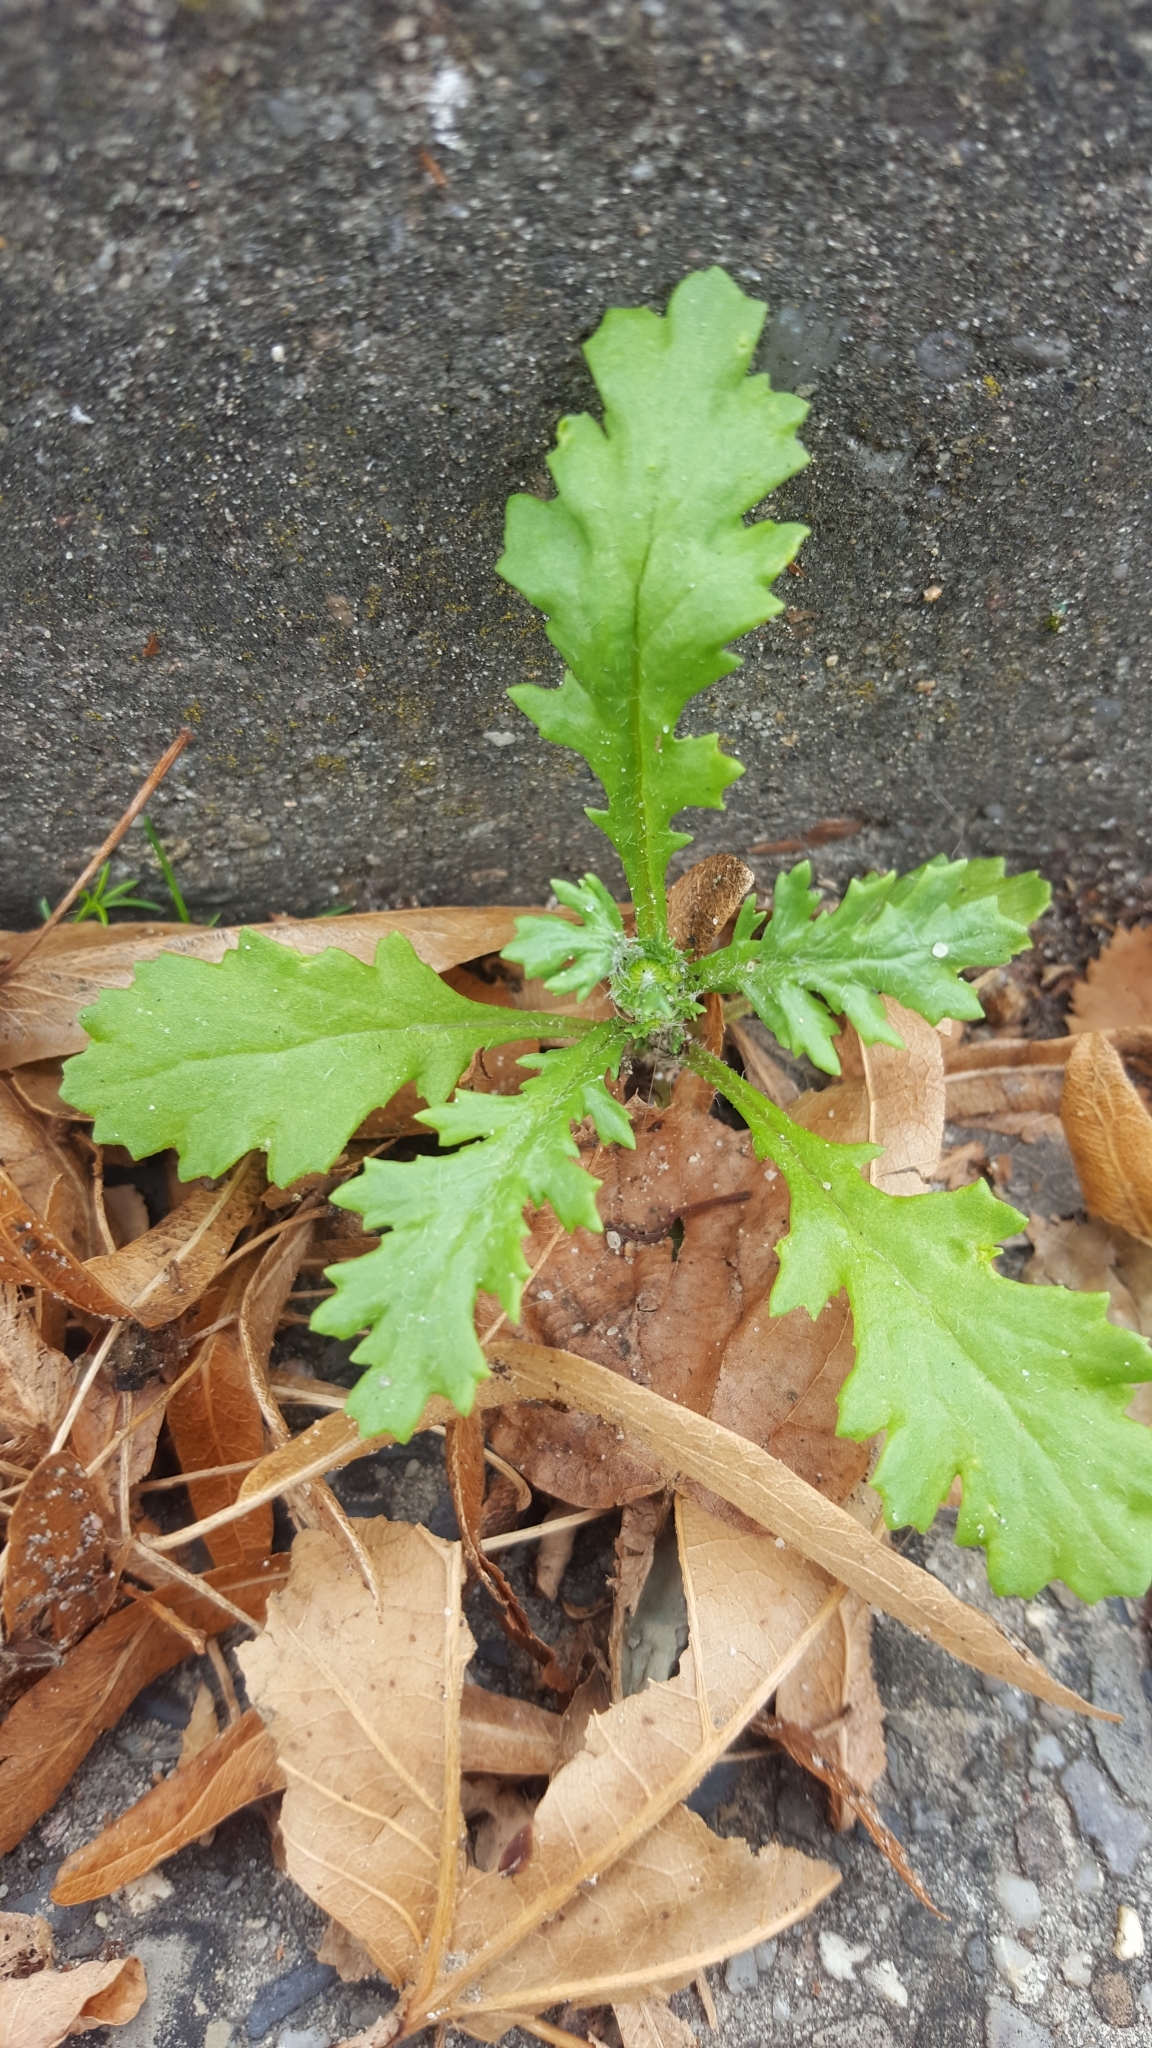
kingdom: Plantae
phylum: Tracheophyta
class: Magnoliopsida
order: Asterales
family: Asteraceae
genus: Senecio
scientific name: Senecio vulgaris
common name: Old-man-in-the-spring
